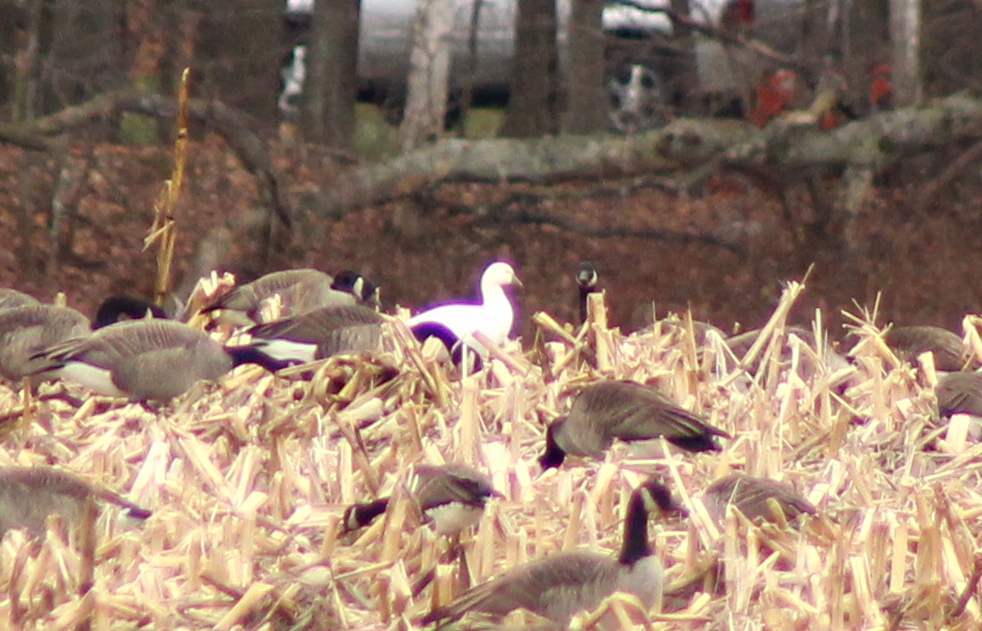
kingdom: Animalia
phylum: Chordata
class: Aves
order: Anseriformes
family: Anatidae
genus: Anser
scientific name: Anser rossii
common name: Ross's goose
